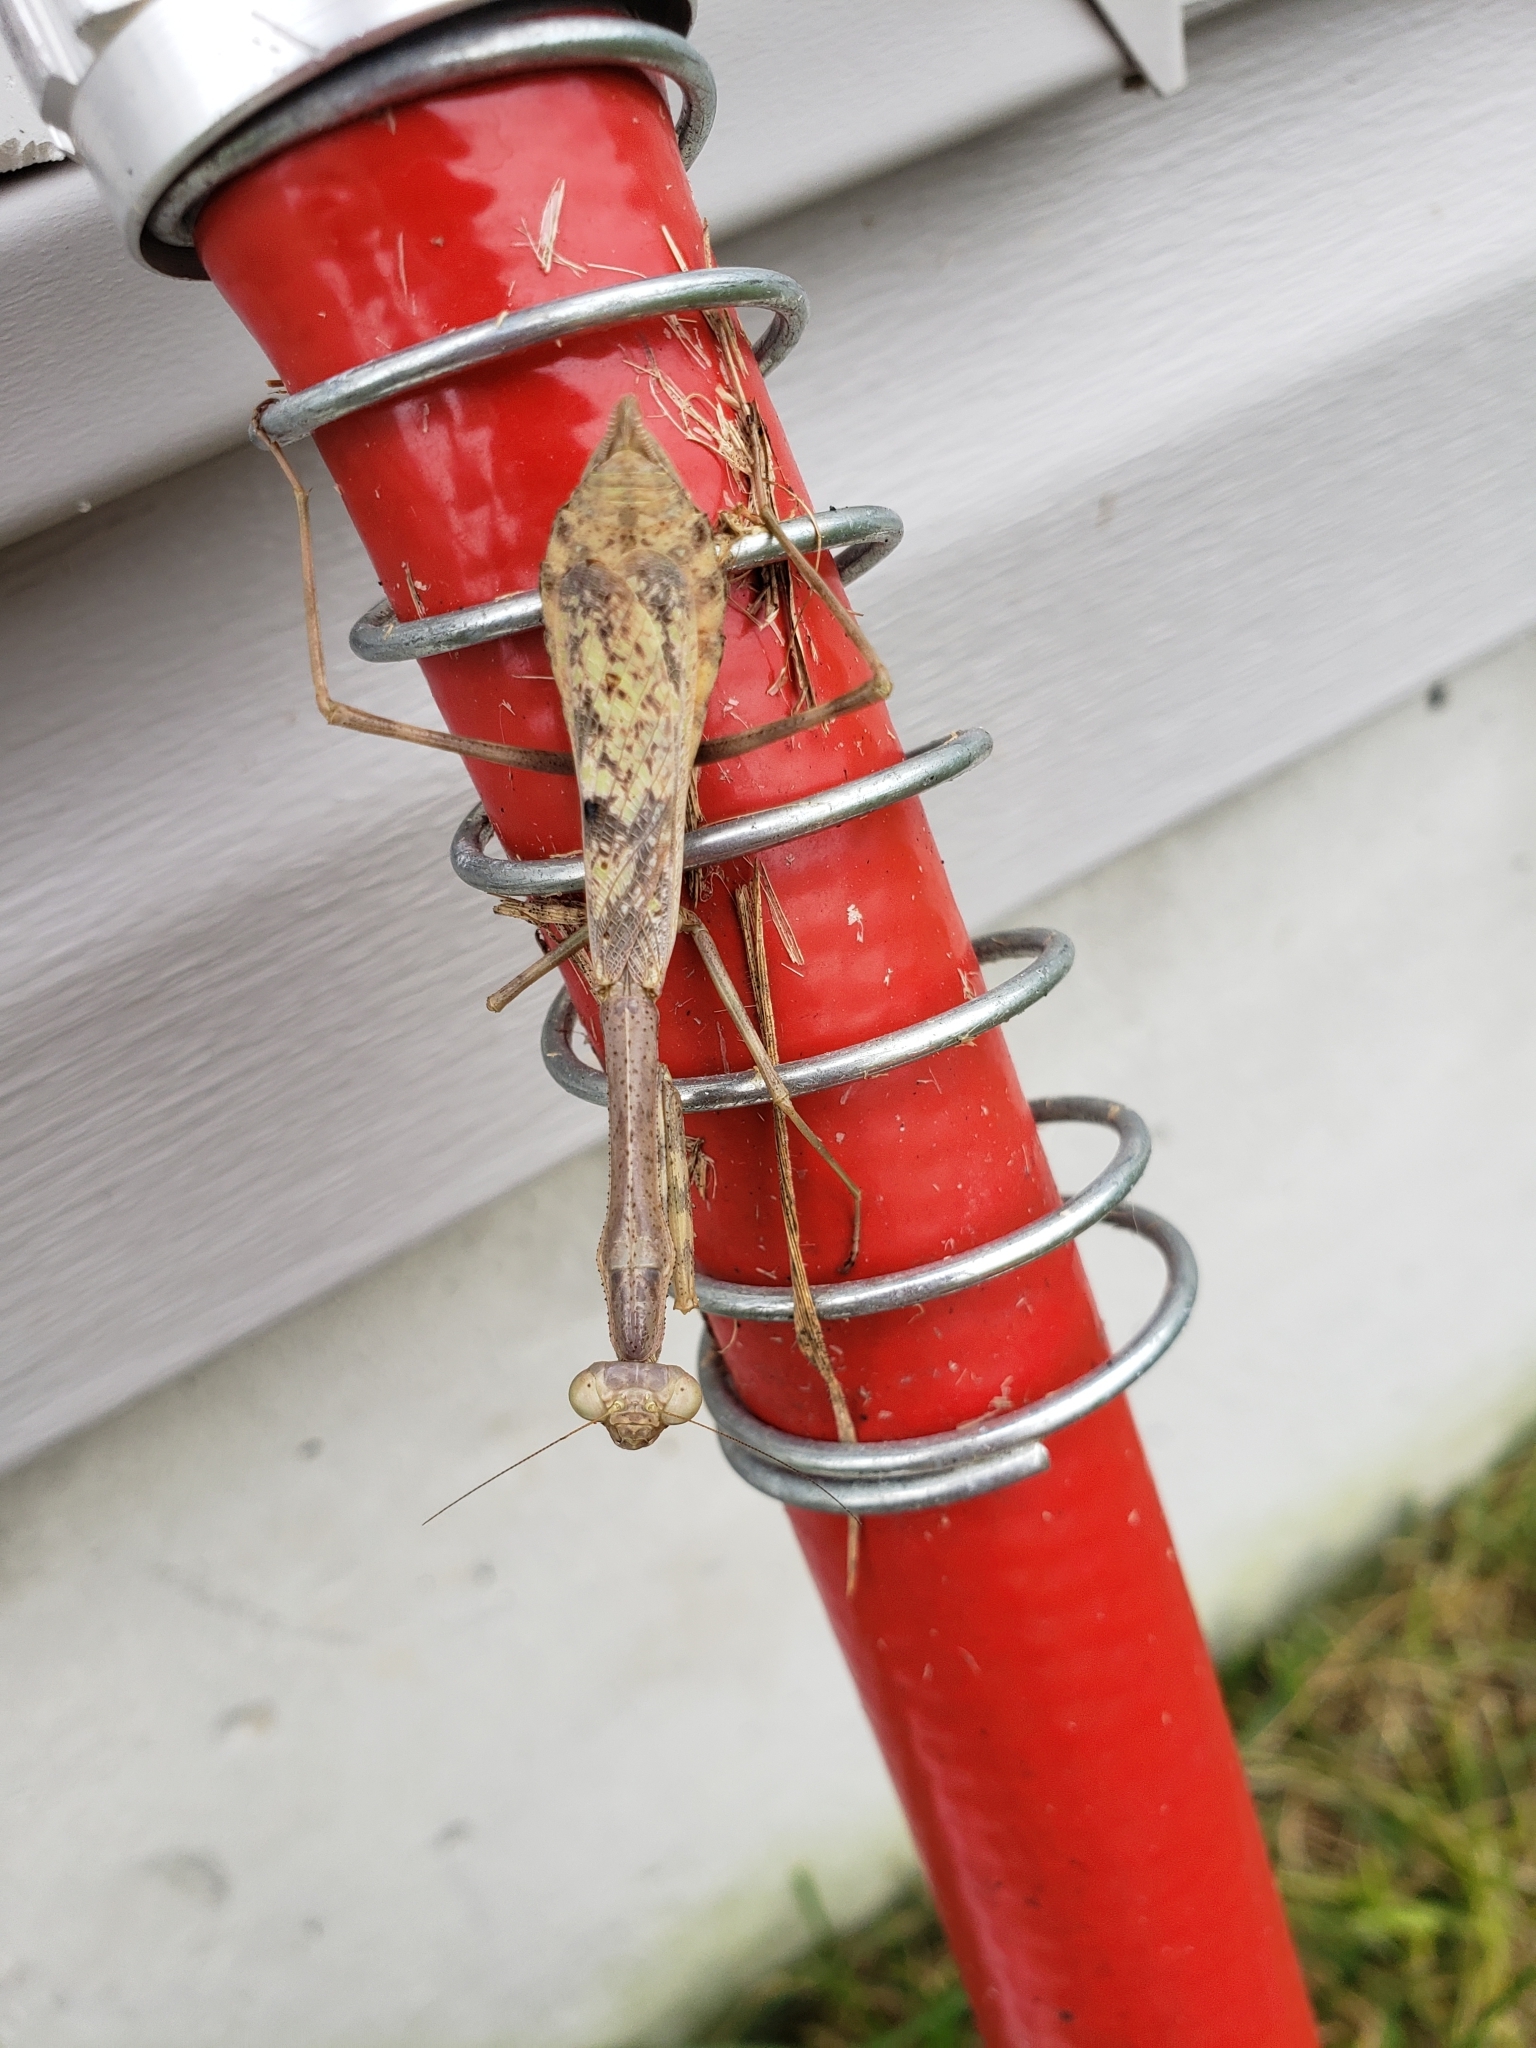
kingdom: Animalia
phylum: Arthropoda
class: Insecta
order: Mantodea
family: Mantidae
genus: Stagmomantis
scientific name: Stagmomantis carolina
